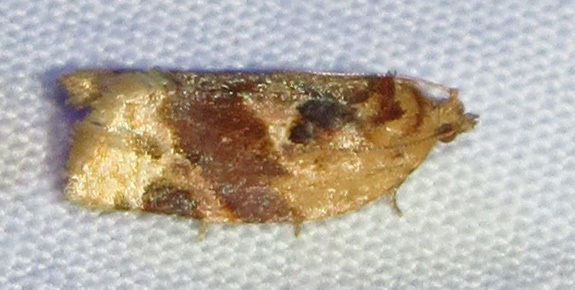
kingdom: Animalia
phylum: Arthropoda
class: Insecta
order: Lepidoptera
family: Tortricidae
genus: Argyrotaenia
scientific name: Argyrotaenia velutinana
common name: Red-banded leafroller moth
